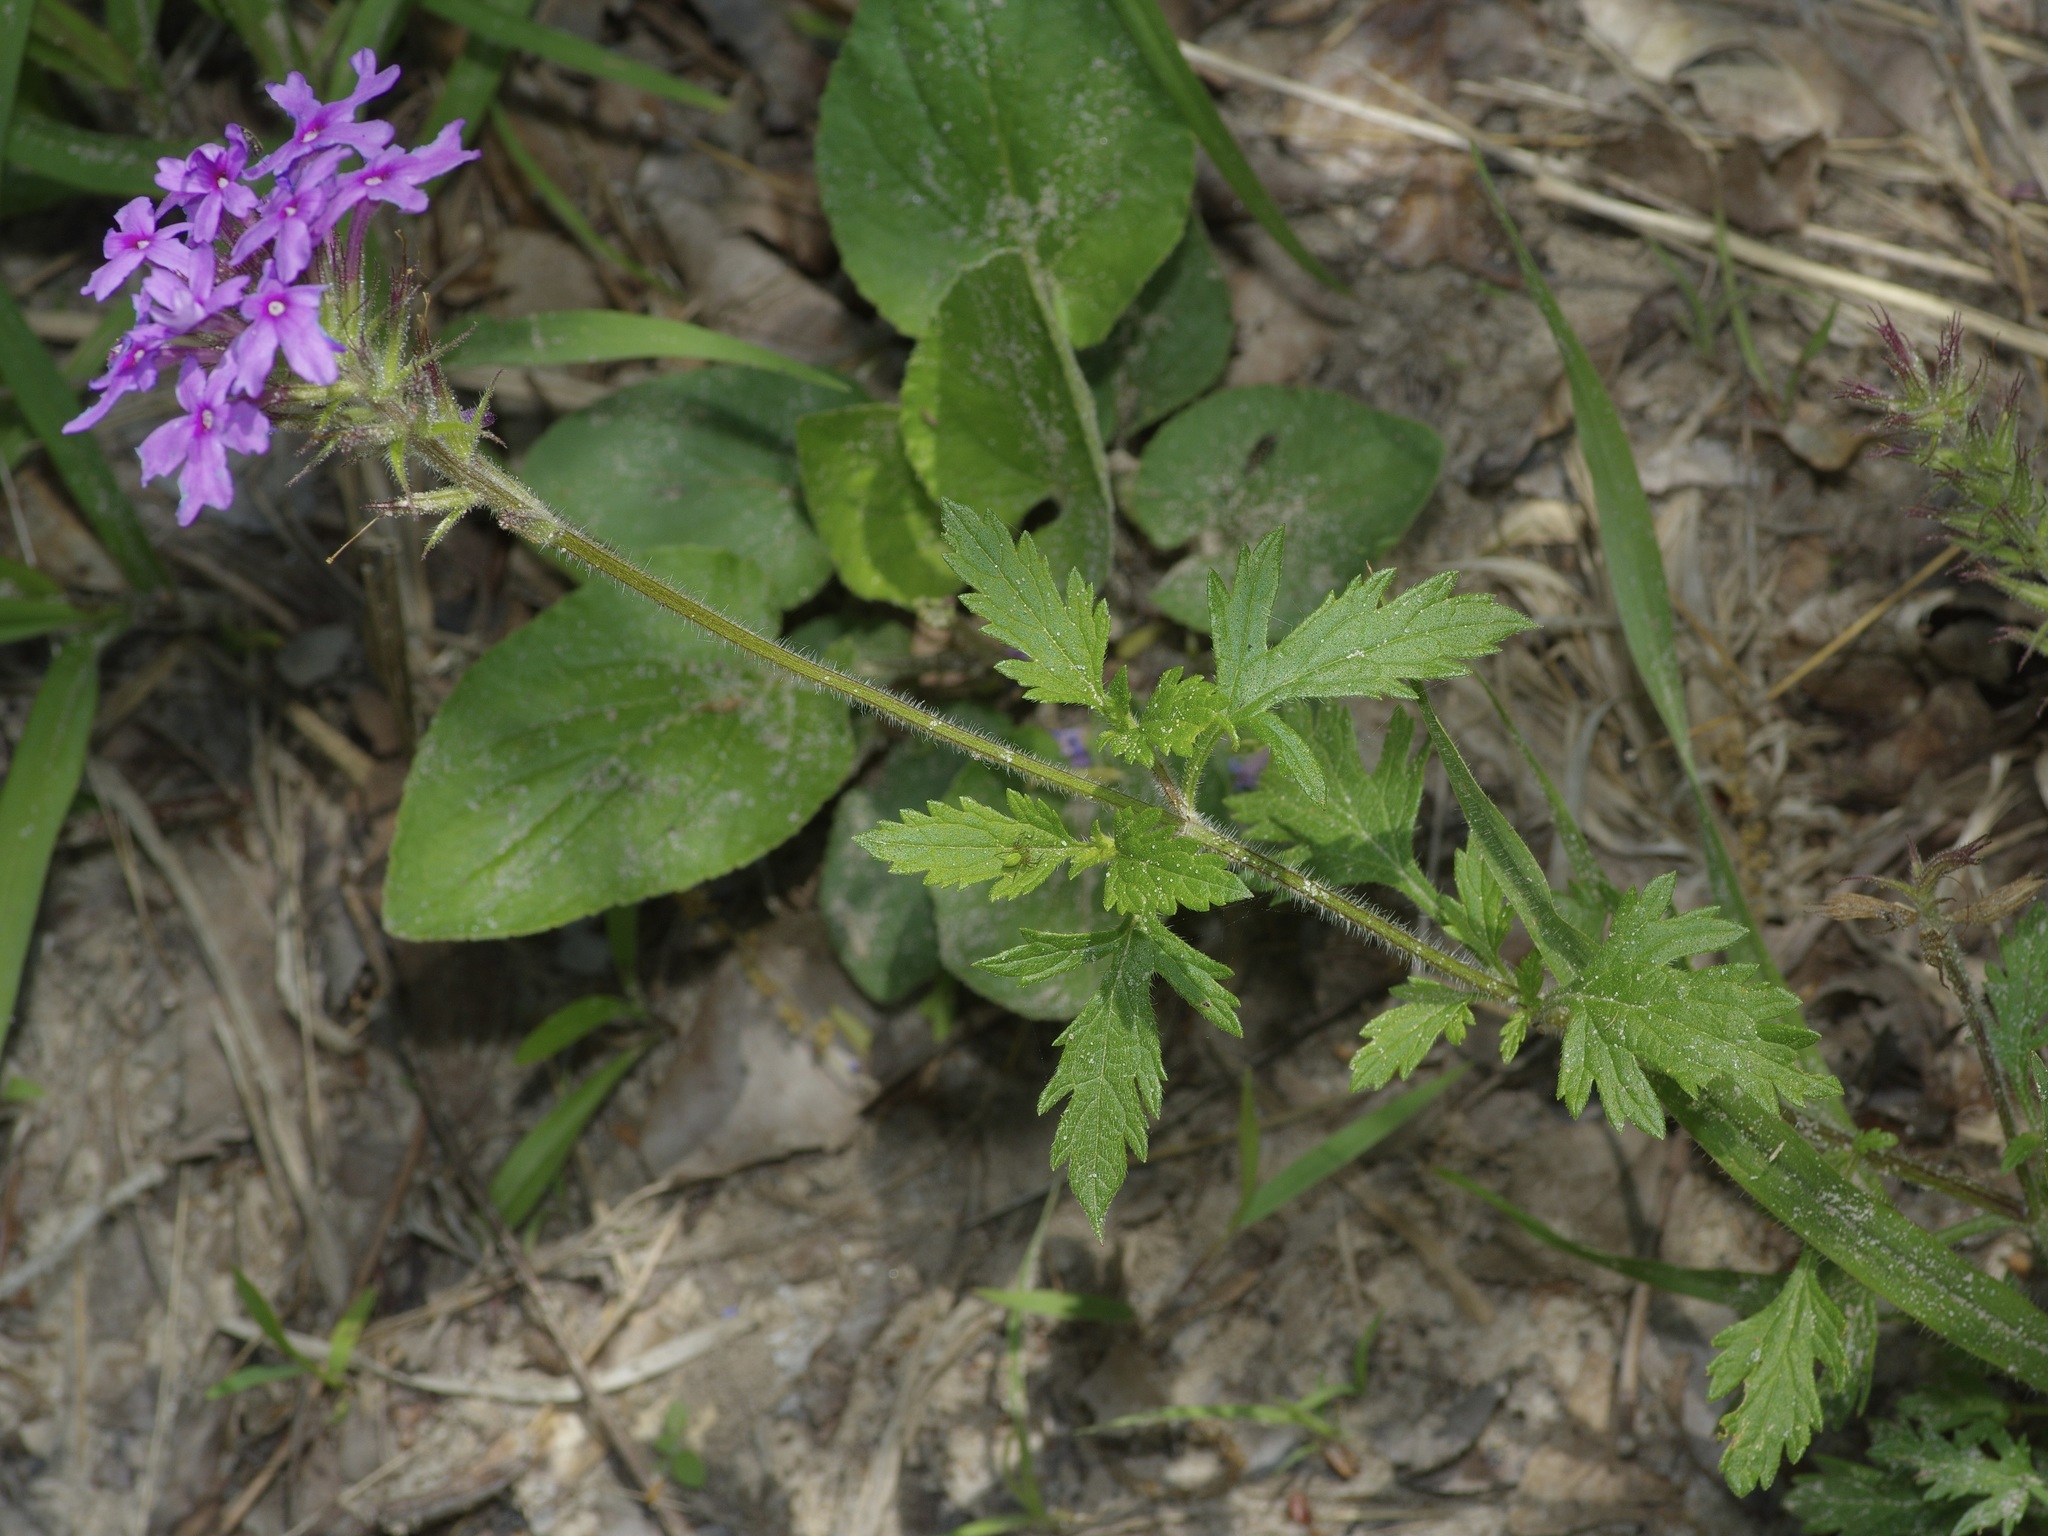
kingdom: Plantae
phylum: Tracheophyta
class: Magnoliopsida
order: Lamiales
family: Verbenaceae
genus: Verbena
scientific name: Verbena canadensis
